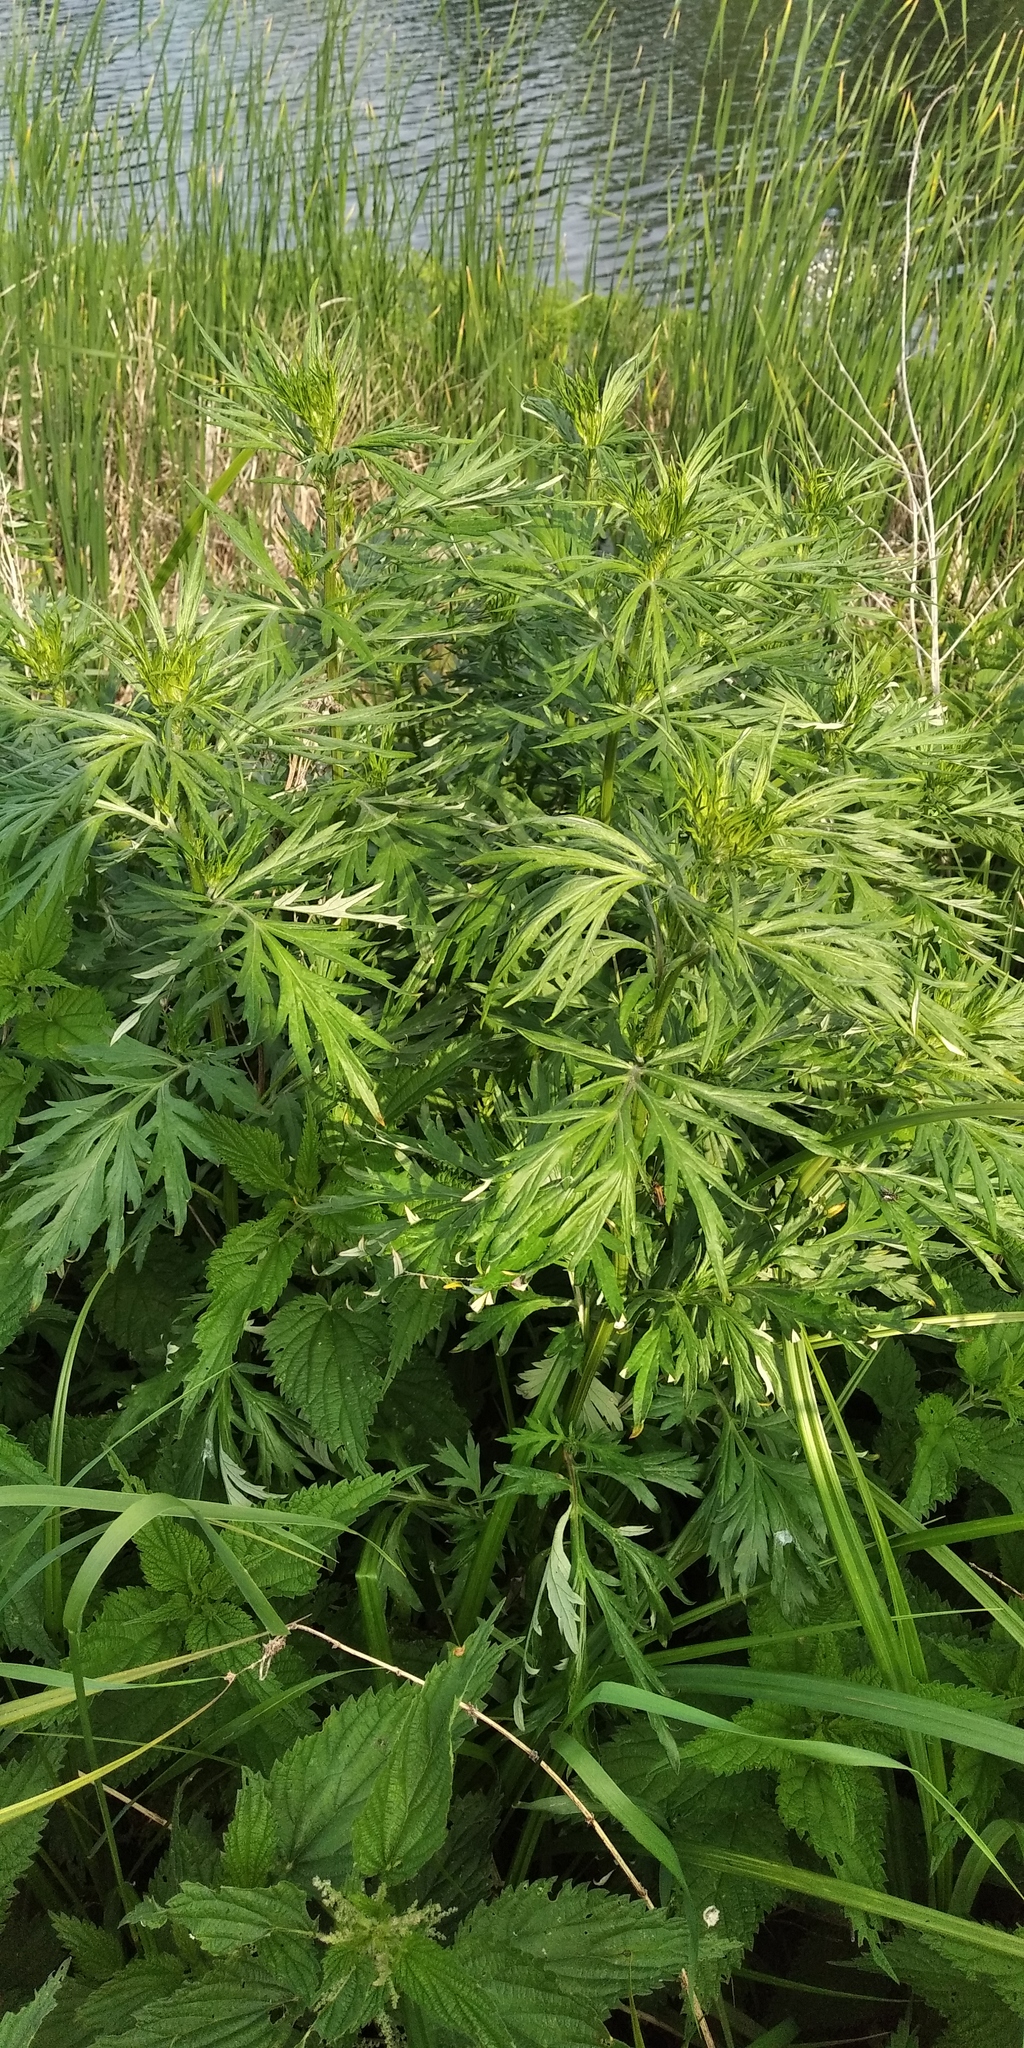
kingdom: Plantae
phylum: Tracheophyta
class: Magnoliopsida
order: Asterales
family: Asteraceae
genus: Artemisia
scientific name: Artemisia vulgaris
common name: Mugwort
